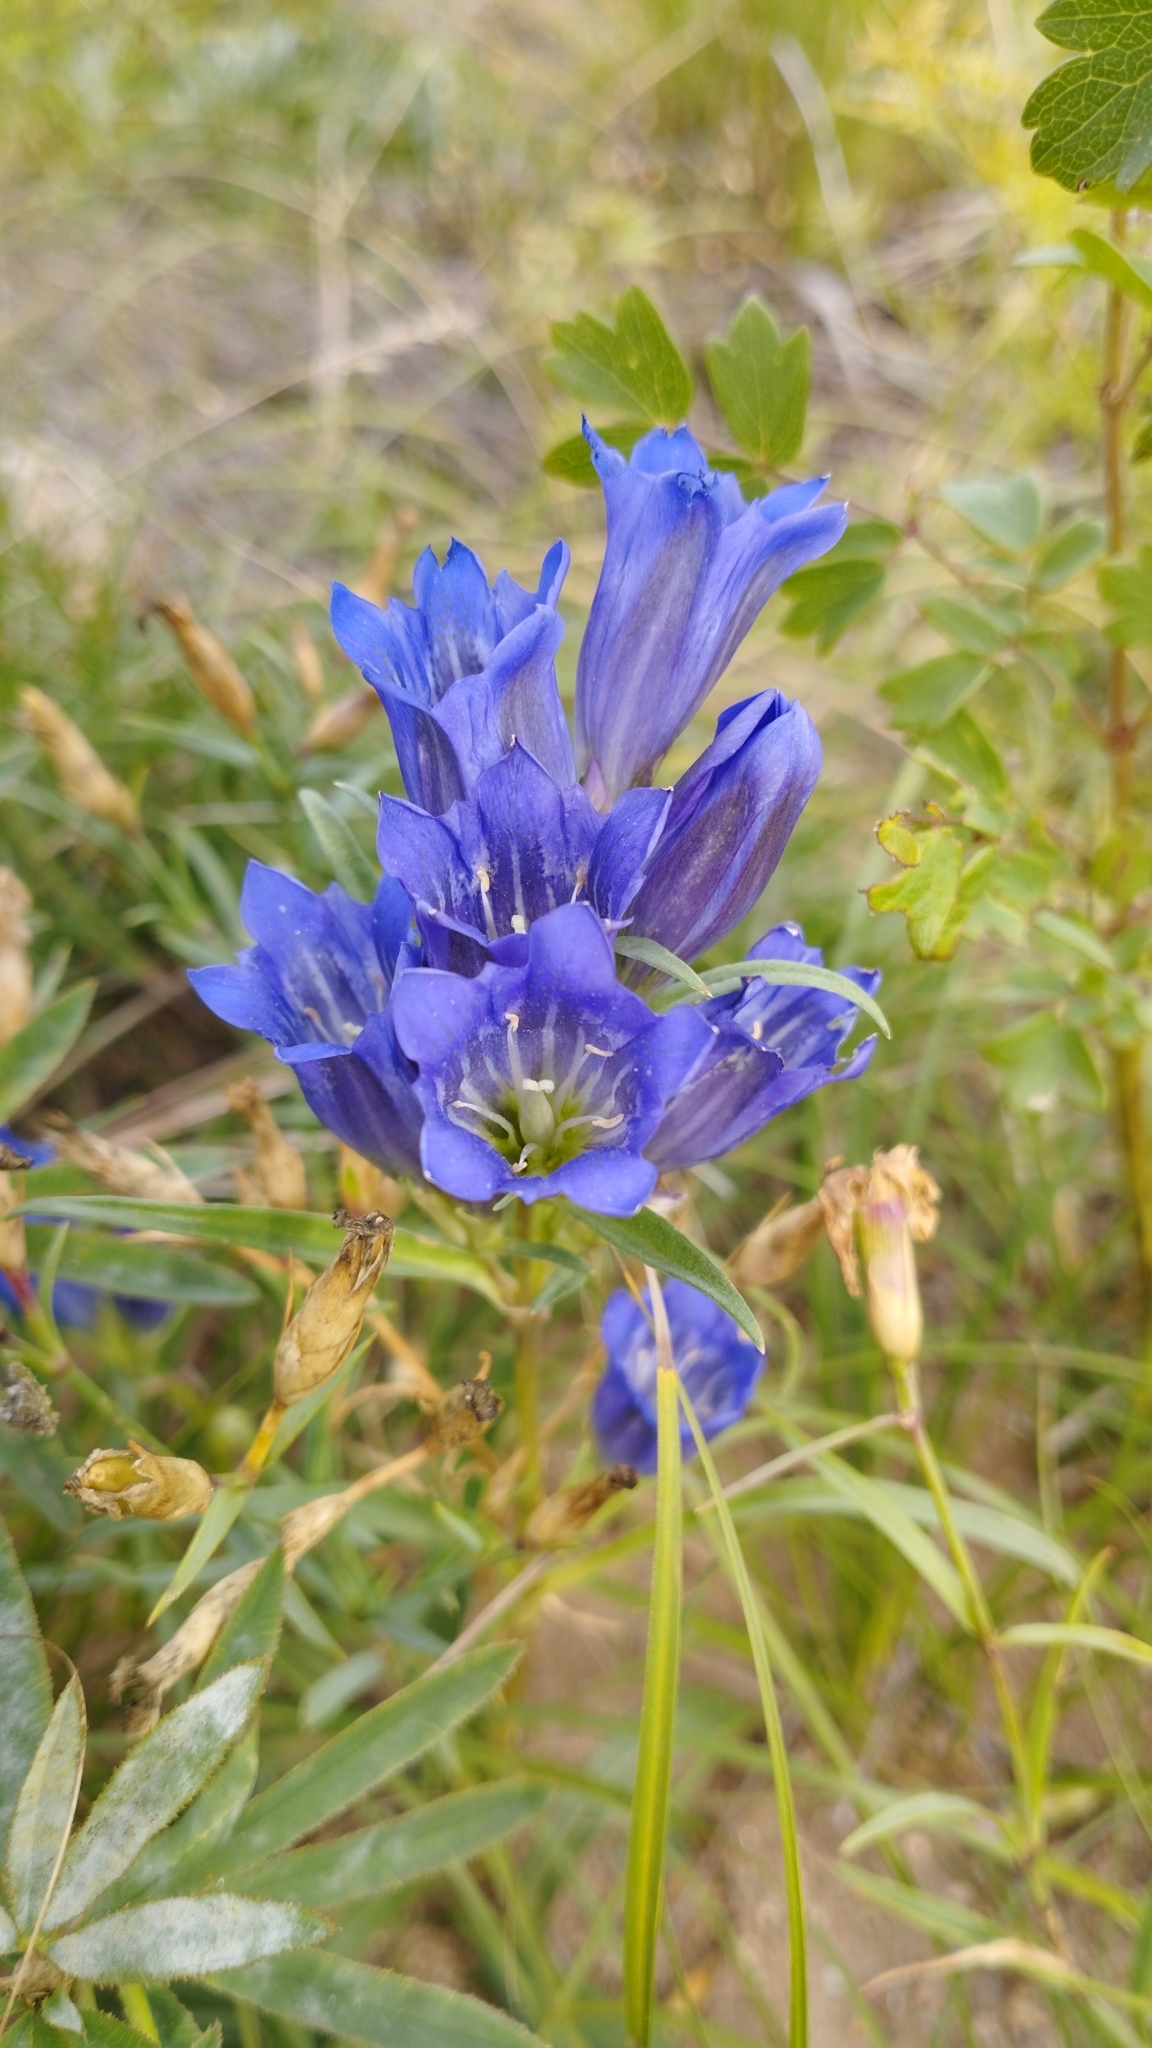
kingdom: Plantae
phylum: Tracheophyta
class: Magnoliopsida
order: Gentianales
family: Gentianaceae
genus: Gentiana
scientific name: Gentiana decumbens
